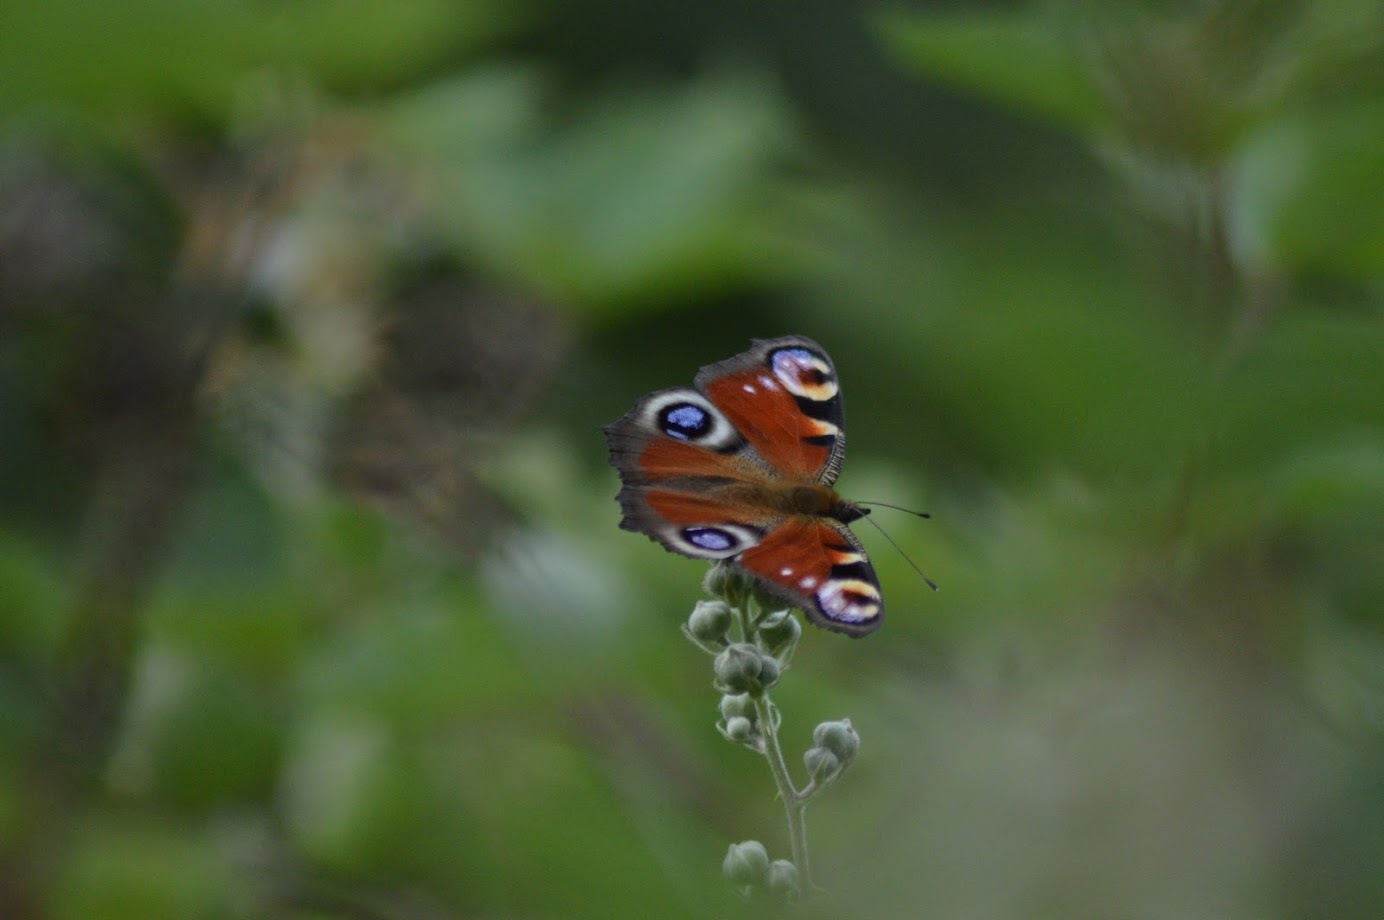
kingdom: Animalia
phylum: Arthropoda
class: Insecta
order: Lepidoptera
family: Nymphalidae
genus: Aglais
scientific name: Aglais io
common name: Peacock
